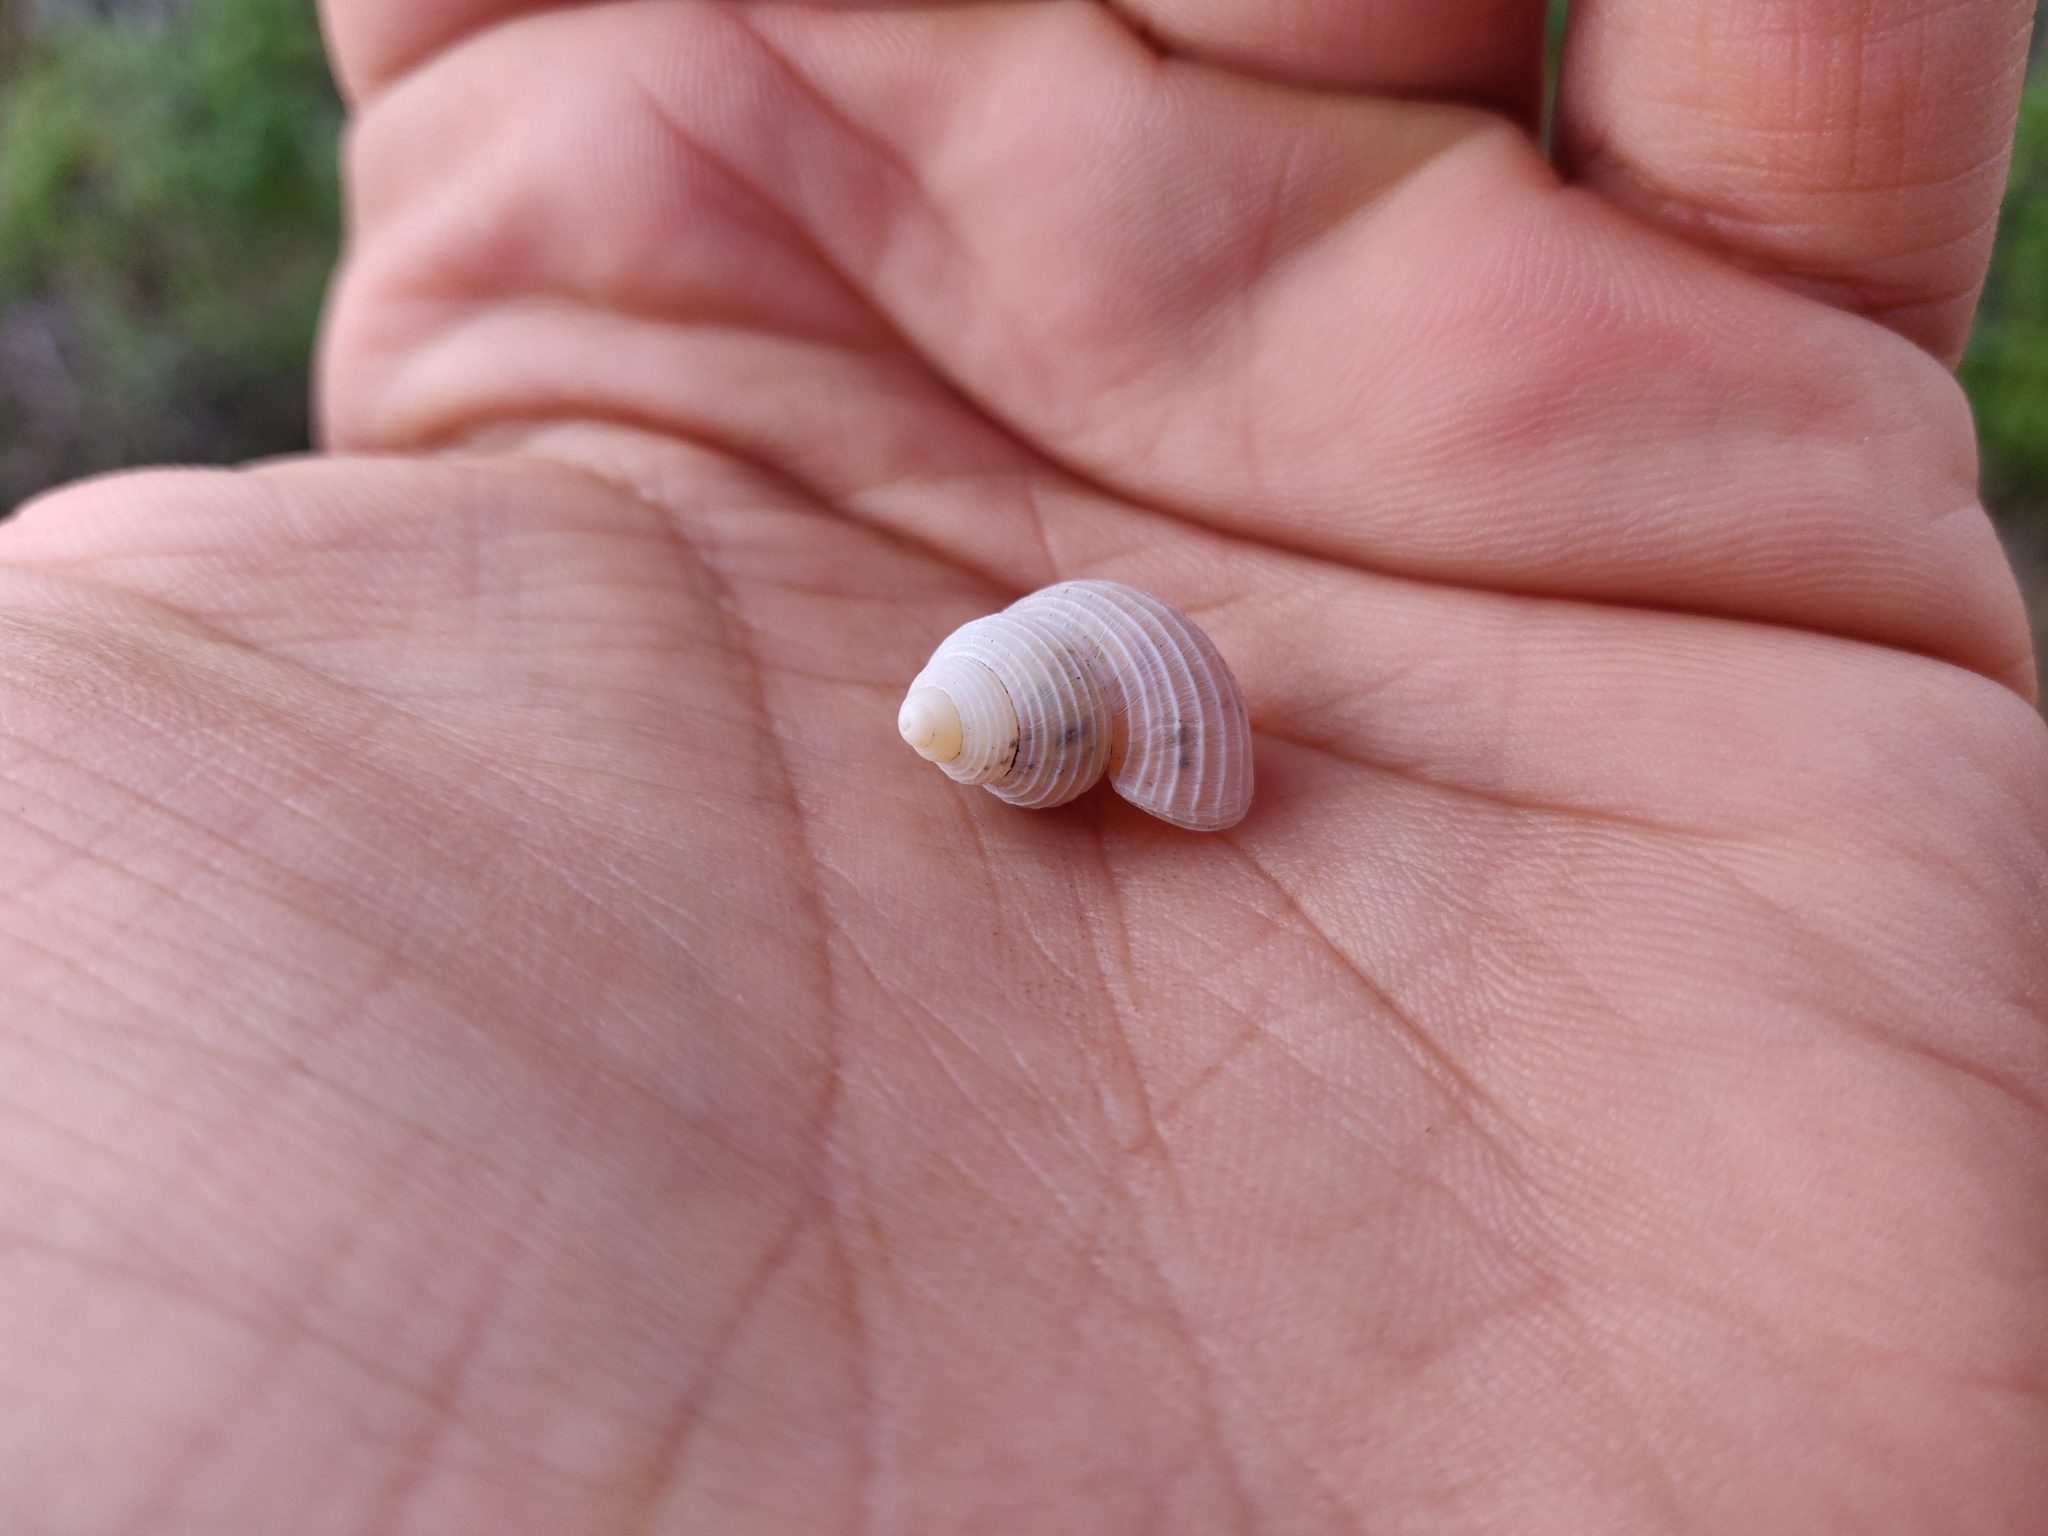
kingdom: Animalia
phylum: Mollusca
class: Gastropoda
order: Littorinimorpha
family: Pomatiidae
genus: Tudorella
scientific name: Tudorella multisulcata
